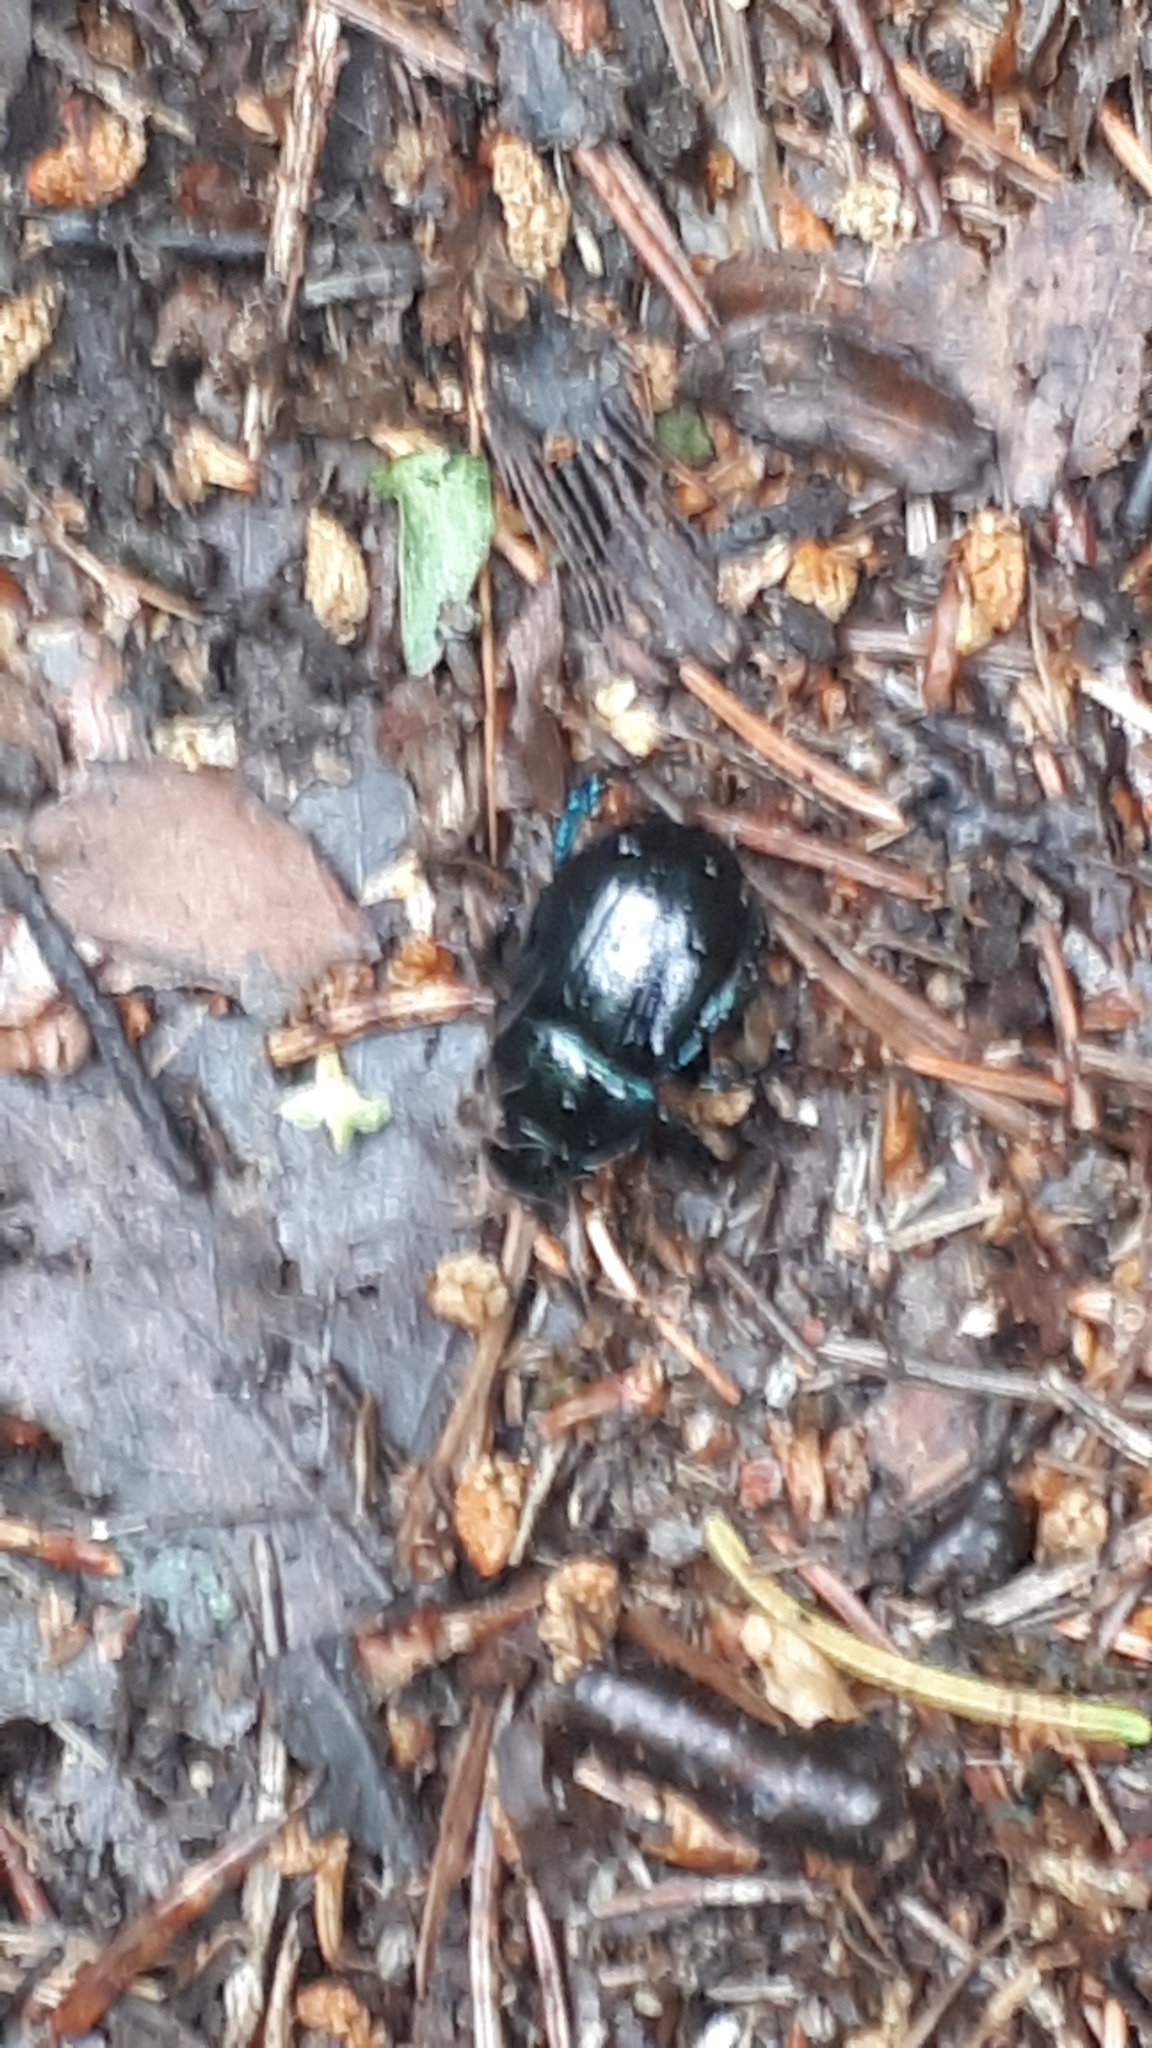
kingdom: Animalia
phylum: Arthropoda
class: Insecta
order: Coleoptera
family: Geotrupidae
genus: Anoplotrupes
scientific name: Anoplotrupes stercorosus
